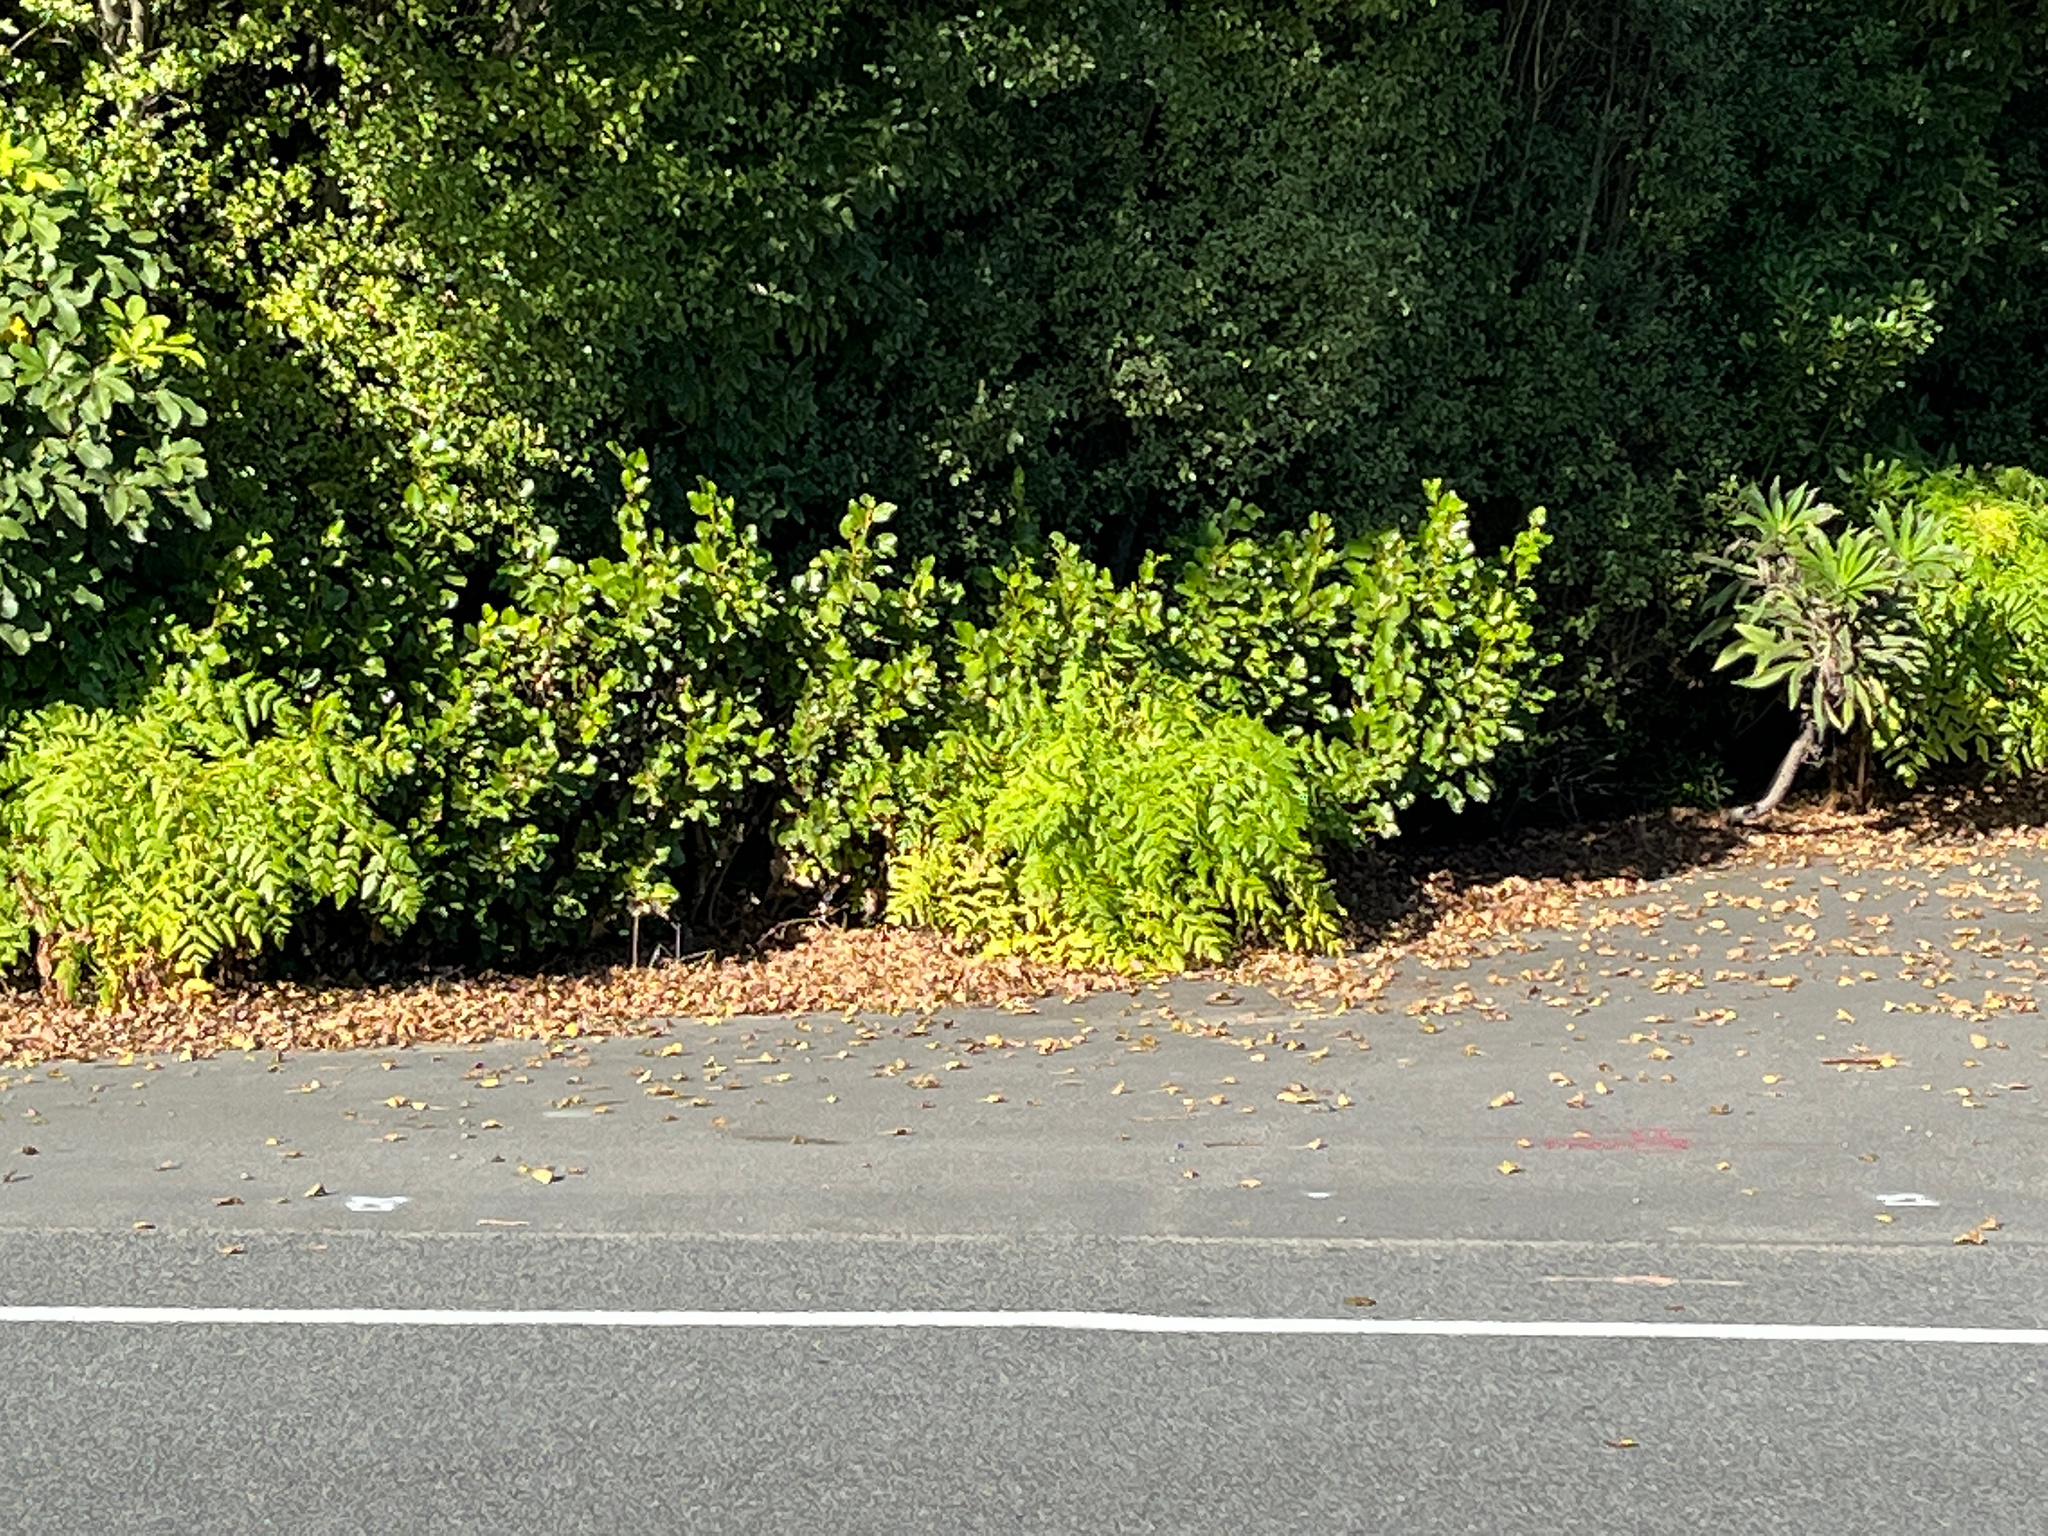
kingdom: Plantae
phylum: Tracheophyta
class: Magnoliopsida
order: Apiales
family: Apiaceae
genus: Daucus
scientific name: Daucus decipiens
